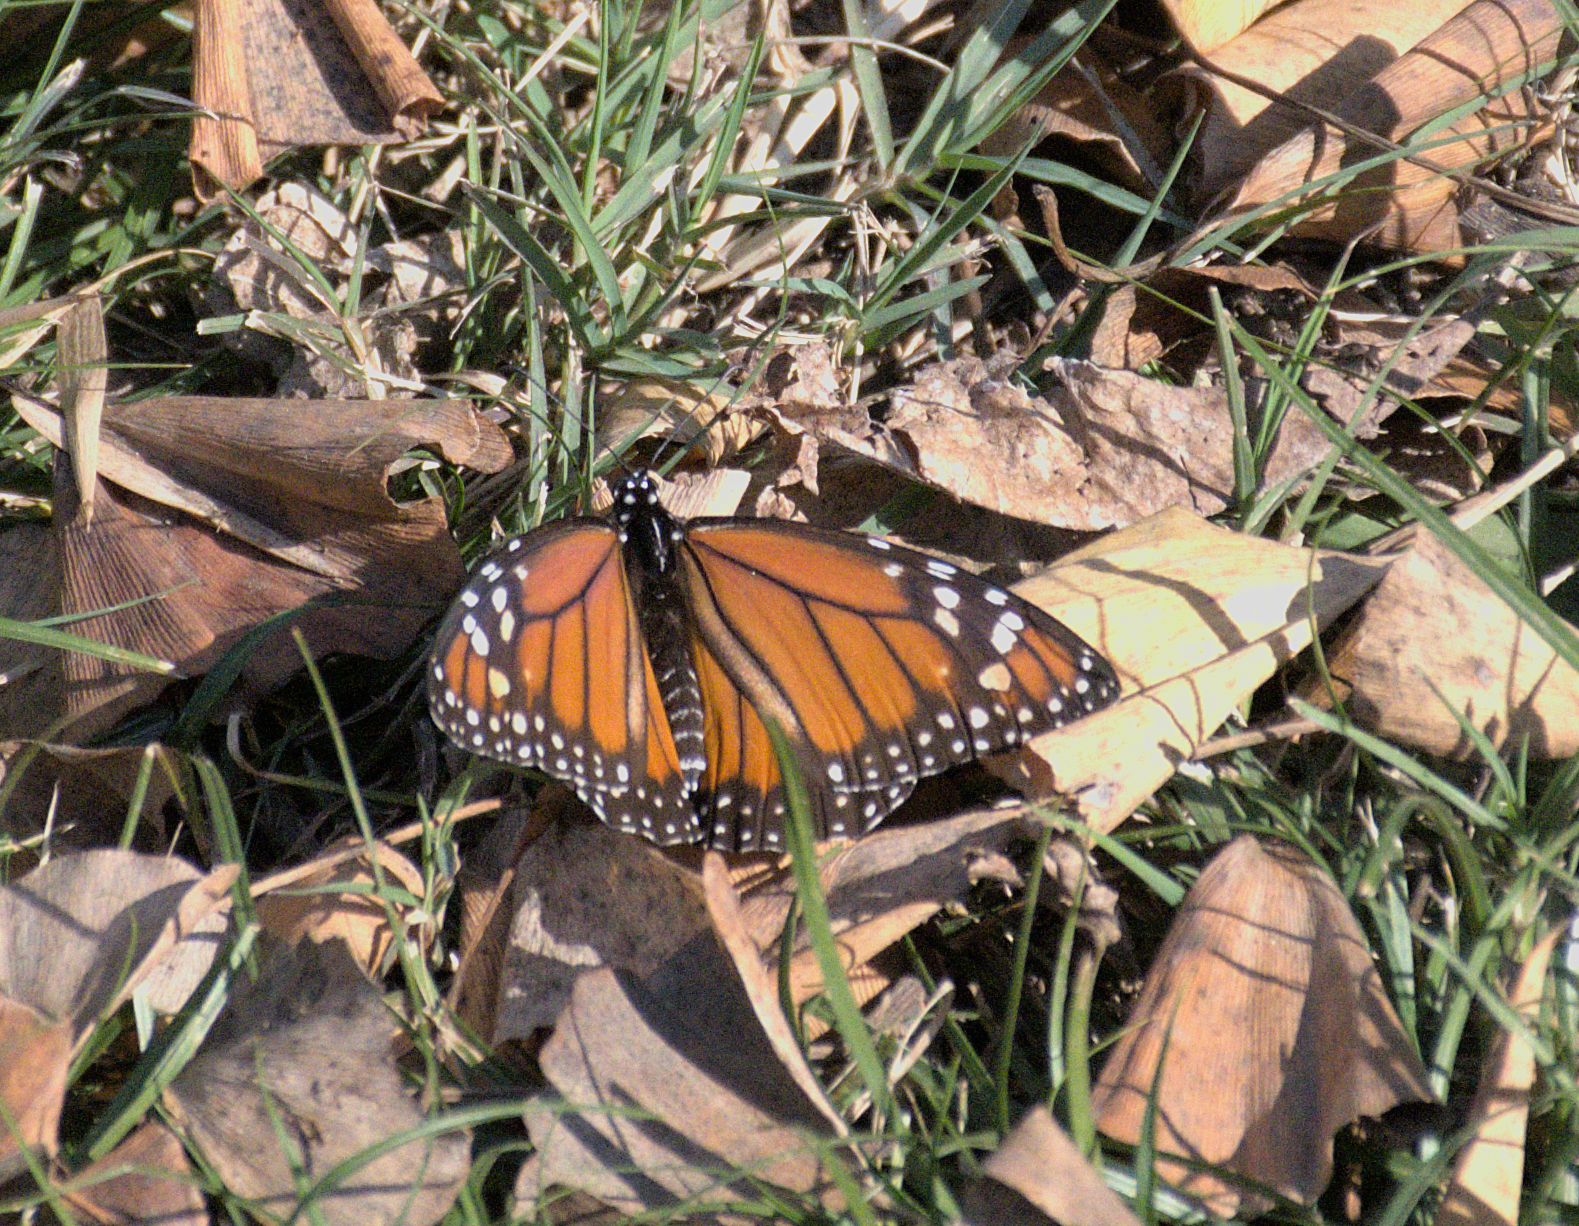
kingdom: Animalia
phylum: Arthropoda
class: Insecta
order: Lepidoptera
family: Nymphalidae
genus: Danaus
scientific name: Danaus erippus
